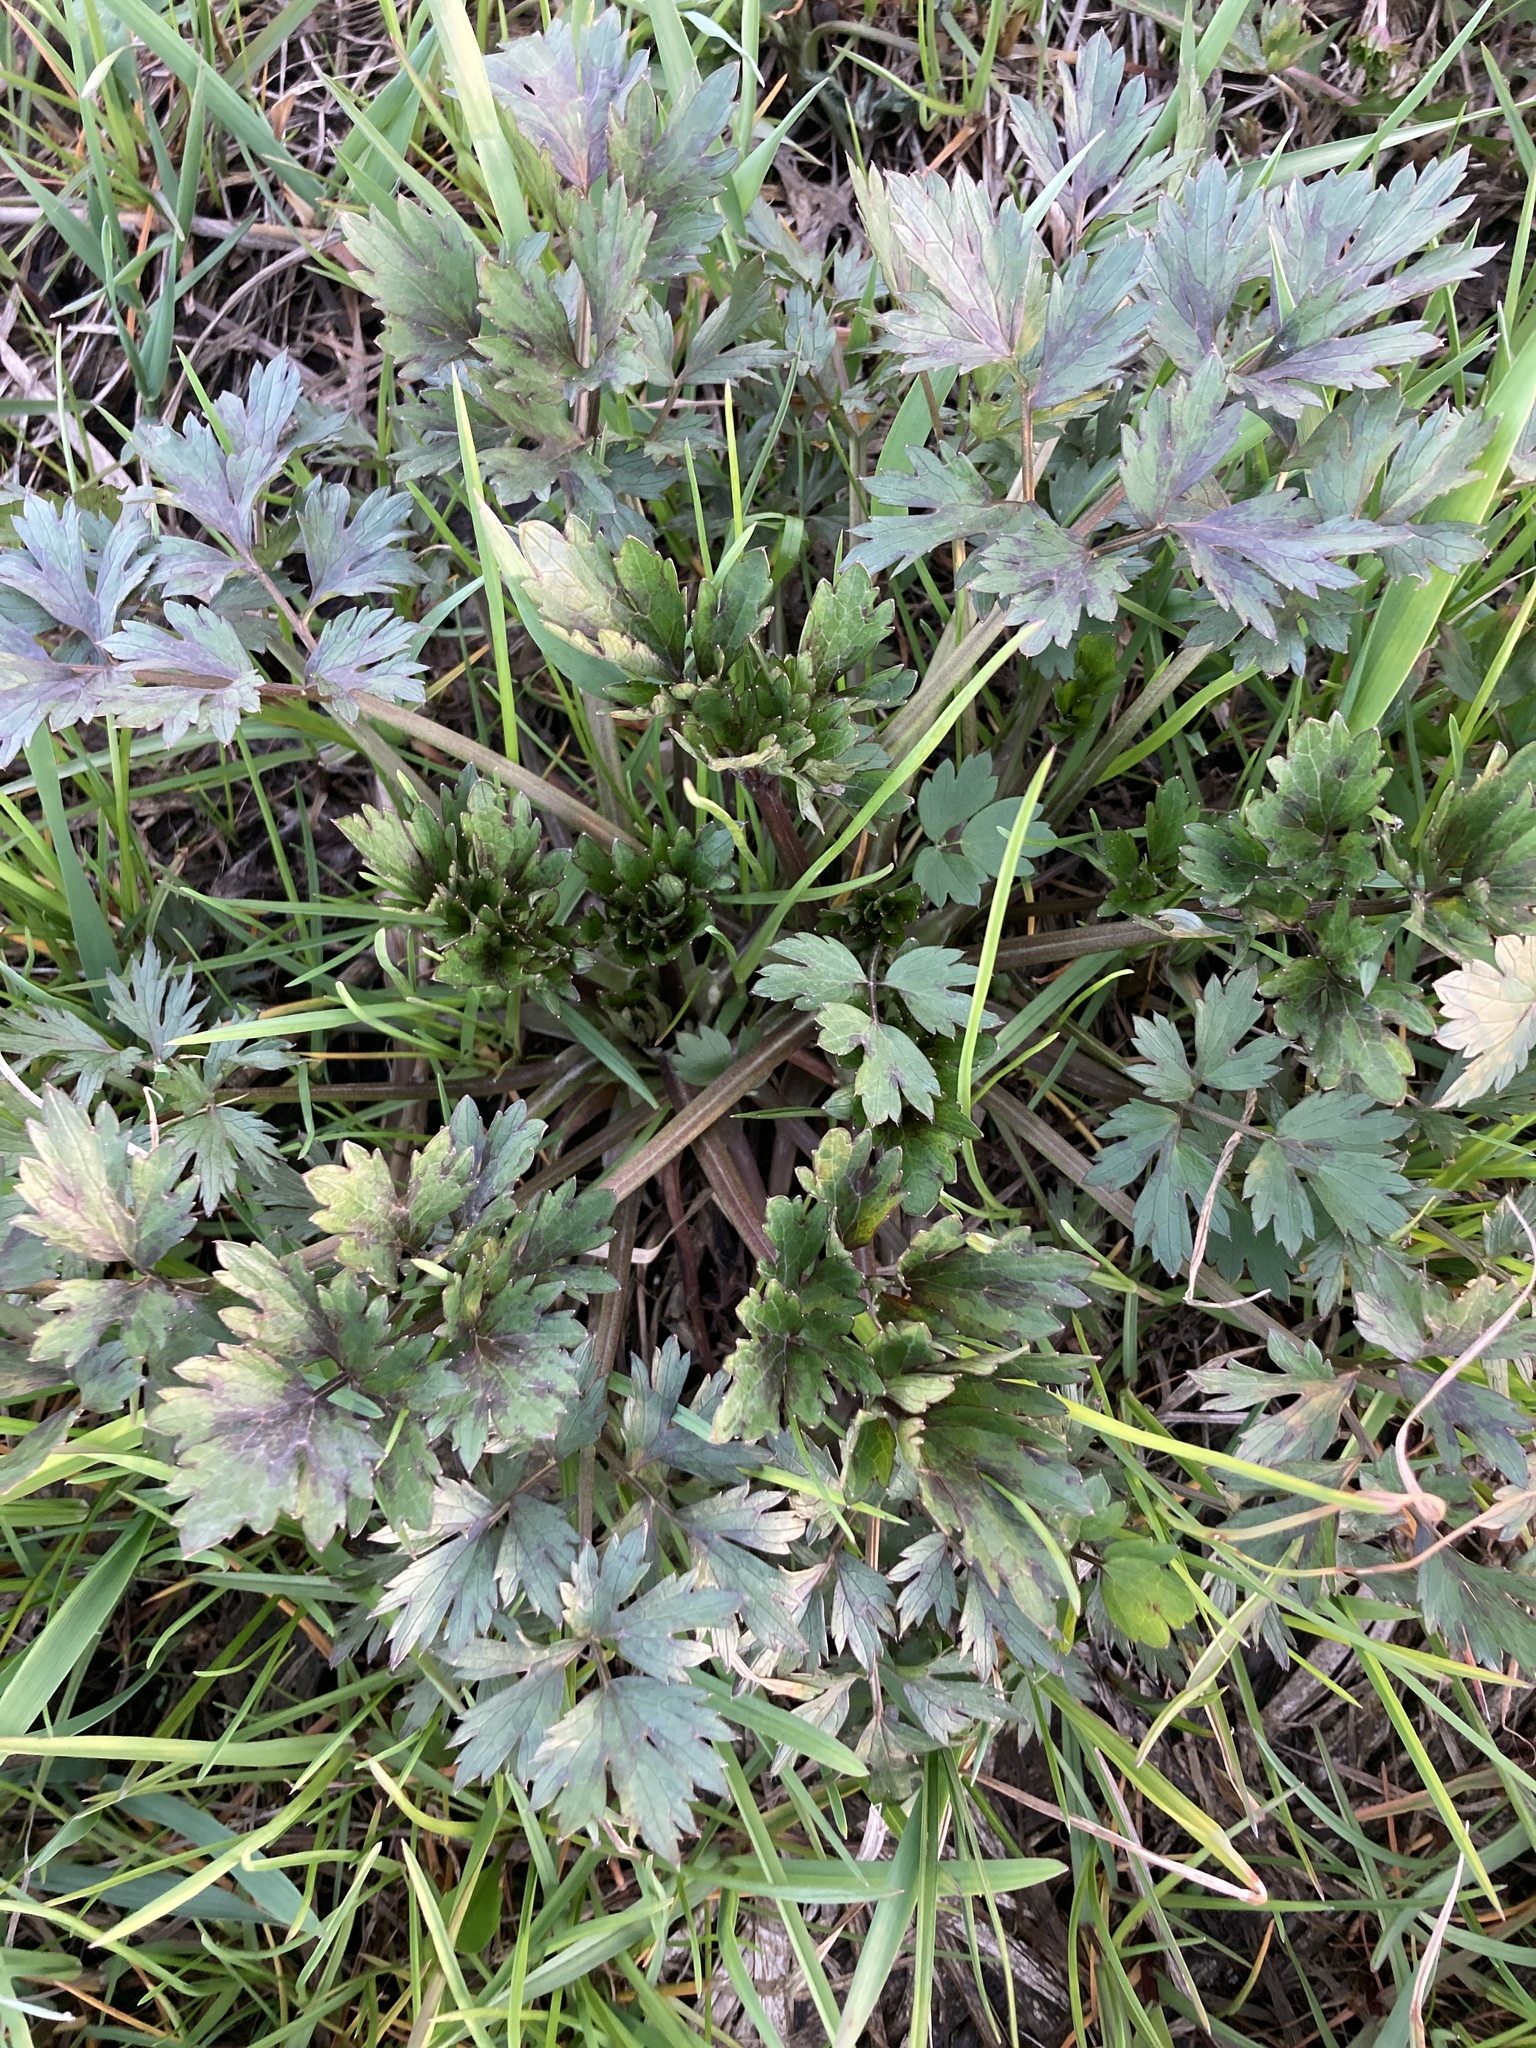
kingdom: Plantae
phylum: Tracheophyta
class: Magnoliopsida
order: Ranunculales
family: Ranunculaceae
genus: Ranunculus
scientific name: Ranunculus repens
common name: Creeping buttercup
